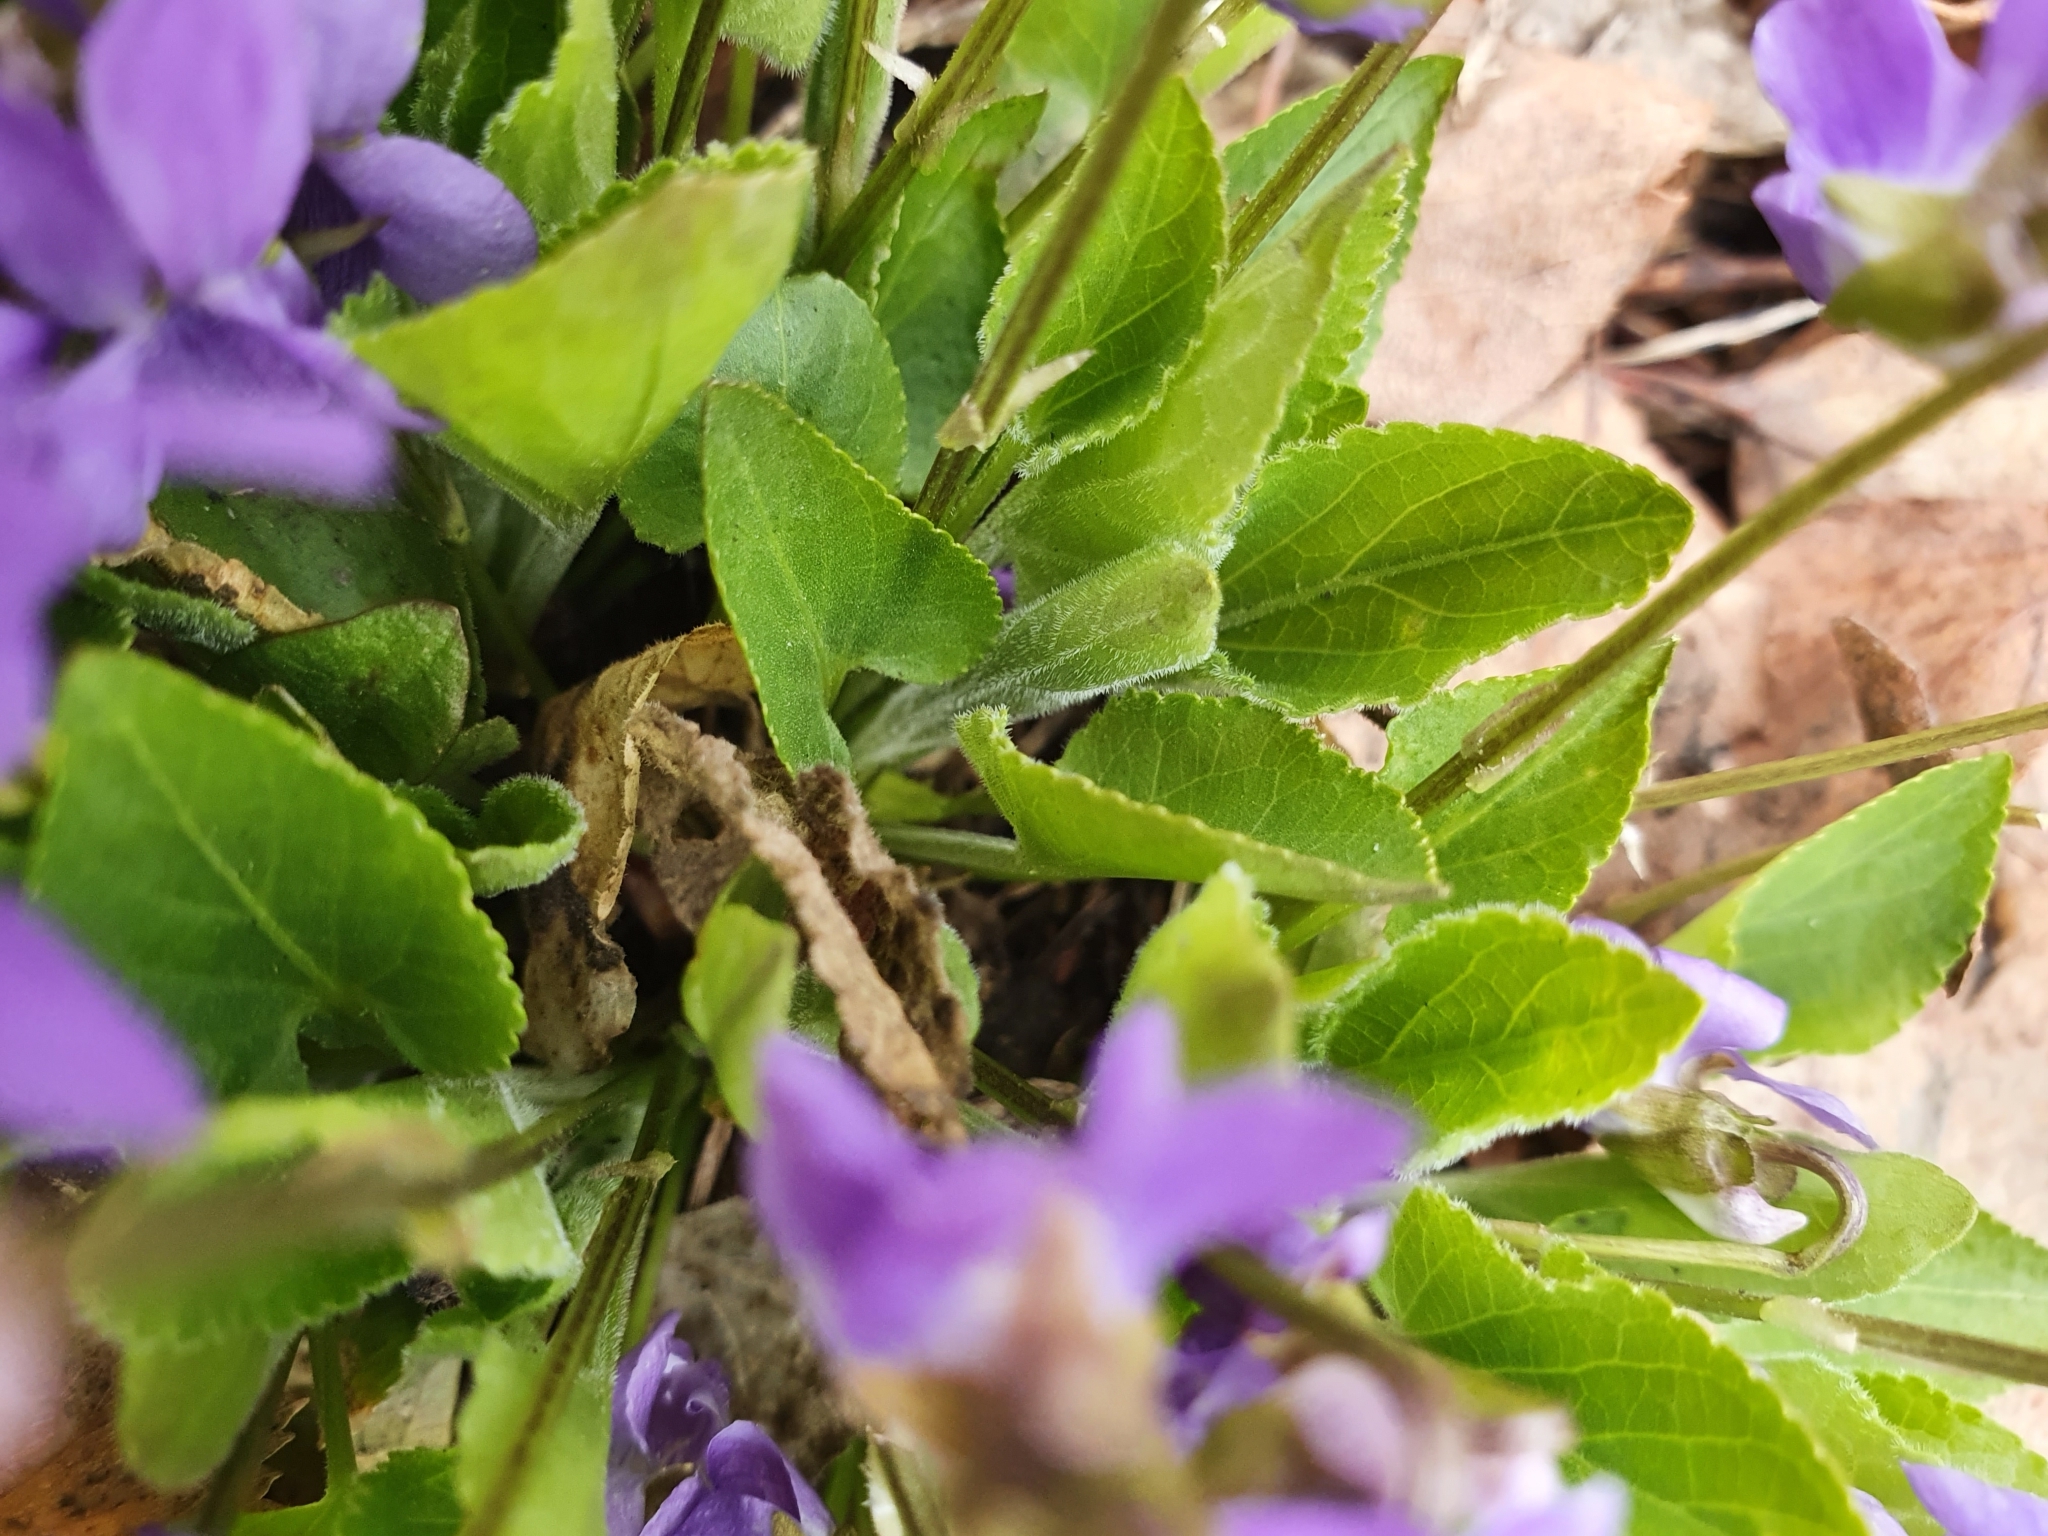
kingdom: Plantae
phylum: Tracheophyta
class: Magnoliopsida
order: Malpighiales
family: Violaceae
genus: Viola
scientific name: Viola hirta
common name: Hairy violet
